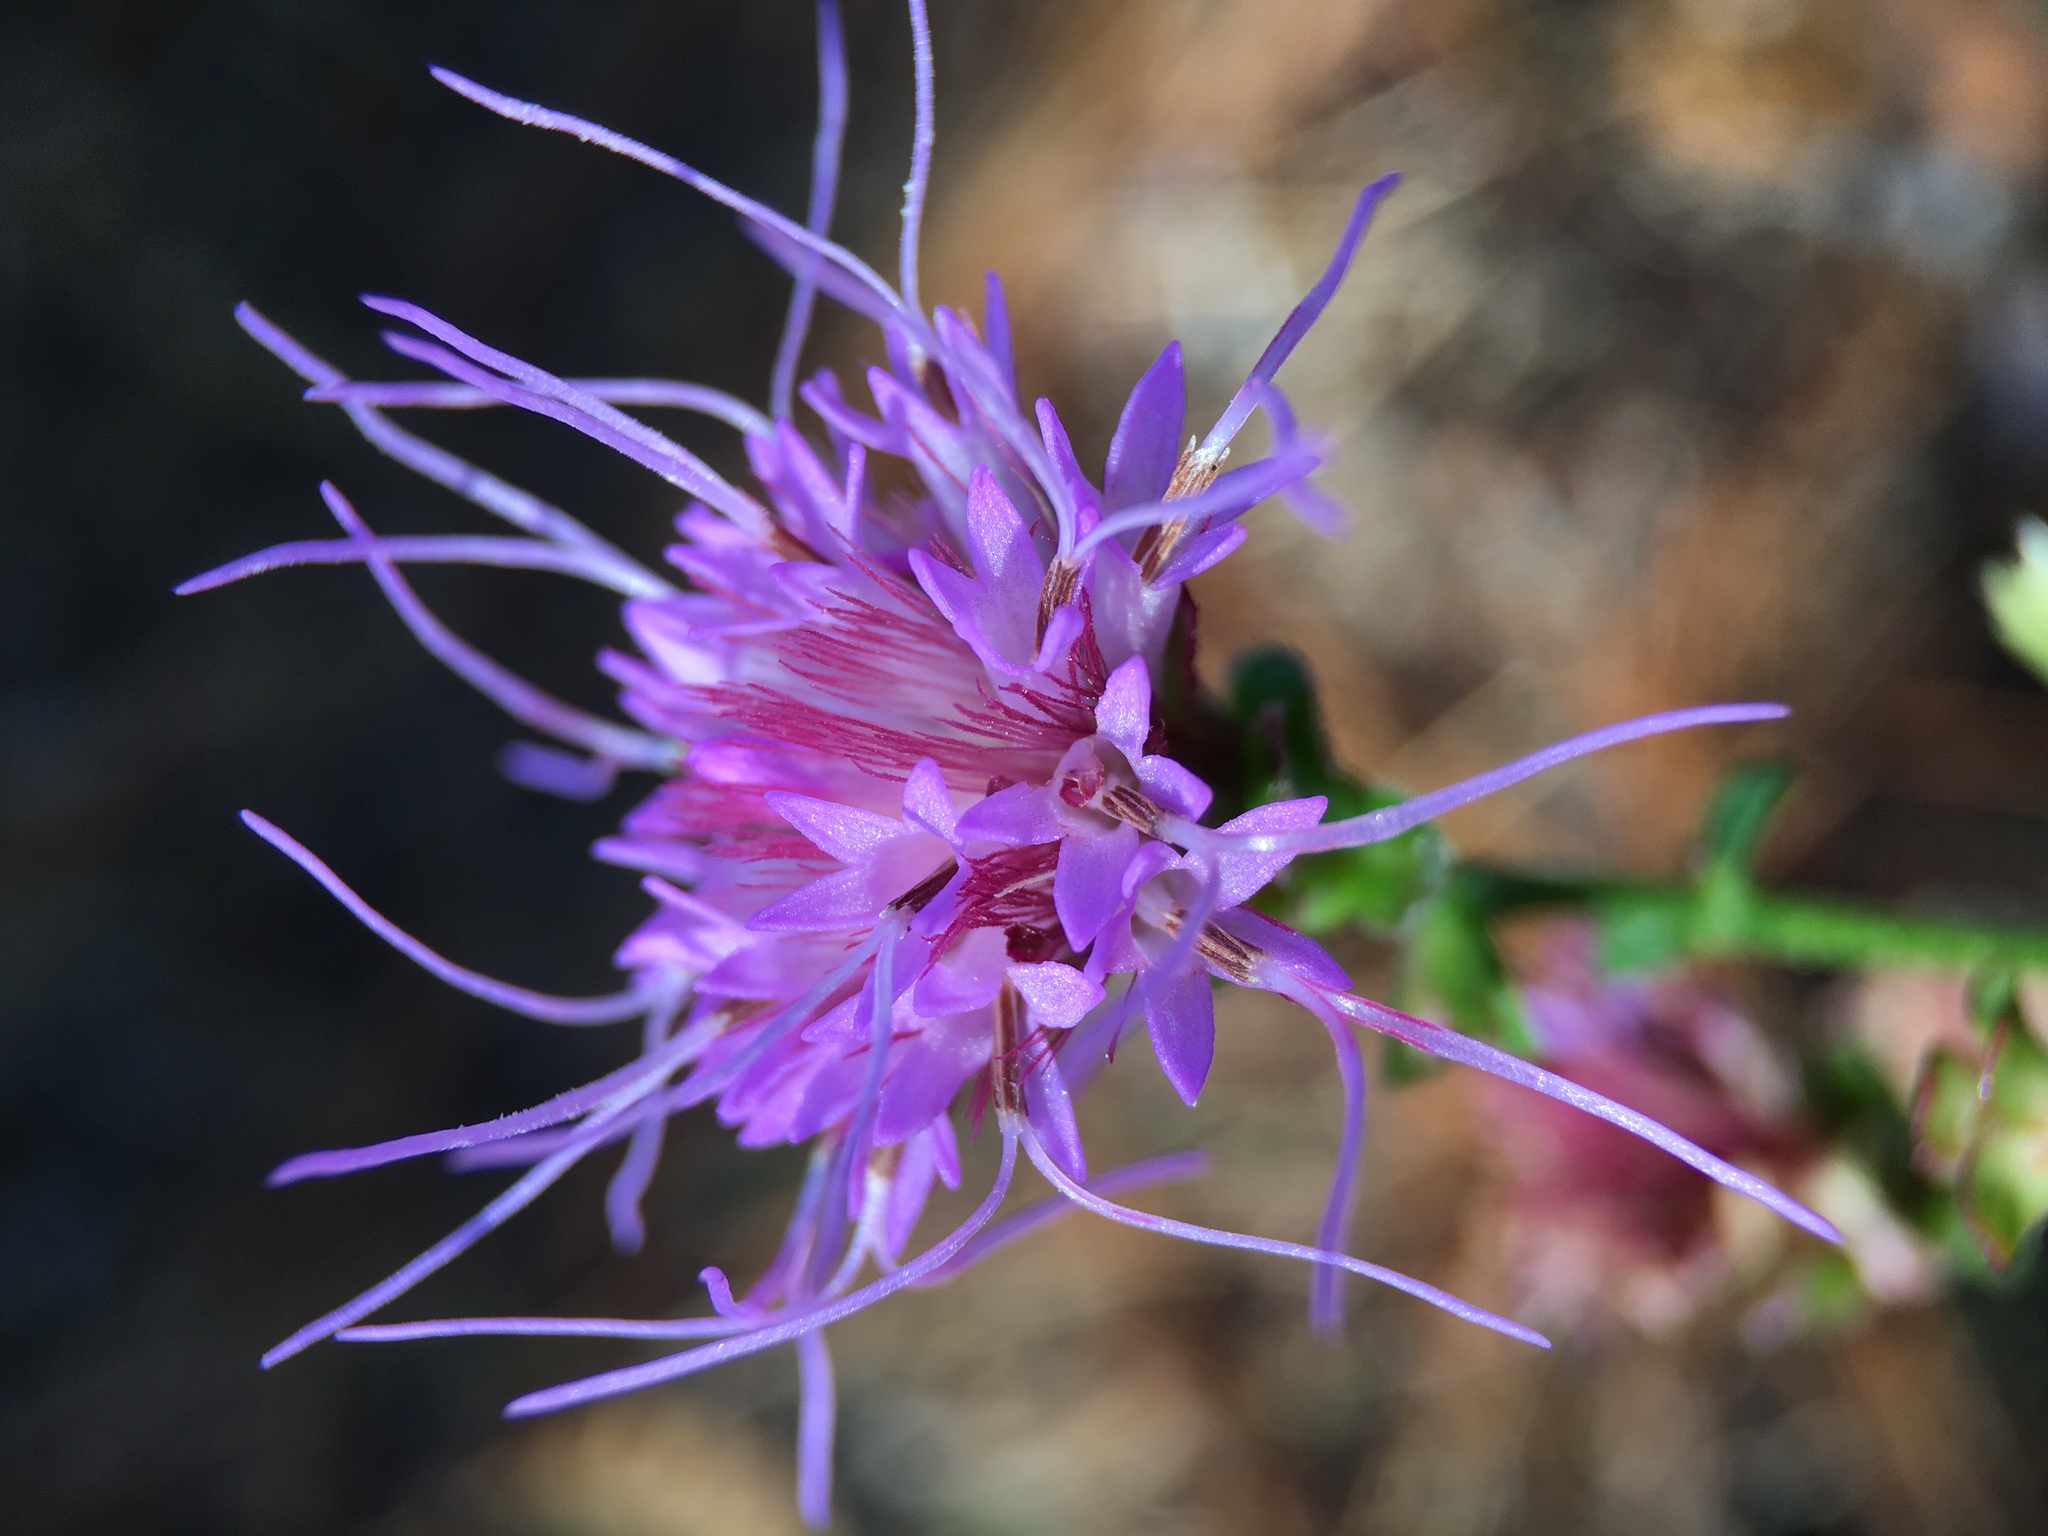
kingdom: Plantae
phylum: Tracheophyta
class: Magnoliopsida
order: Asterales
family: Asteraceae
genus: Carphephorus
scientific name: Carphephorus bellidifolius
